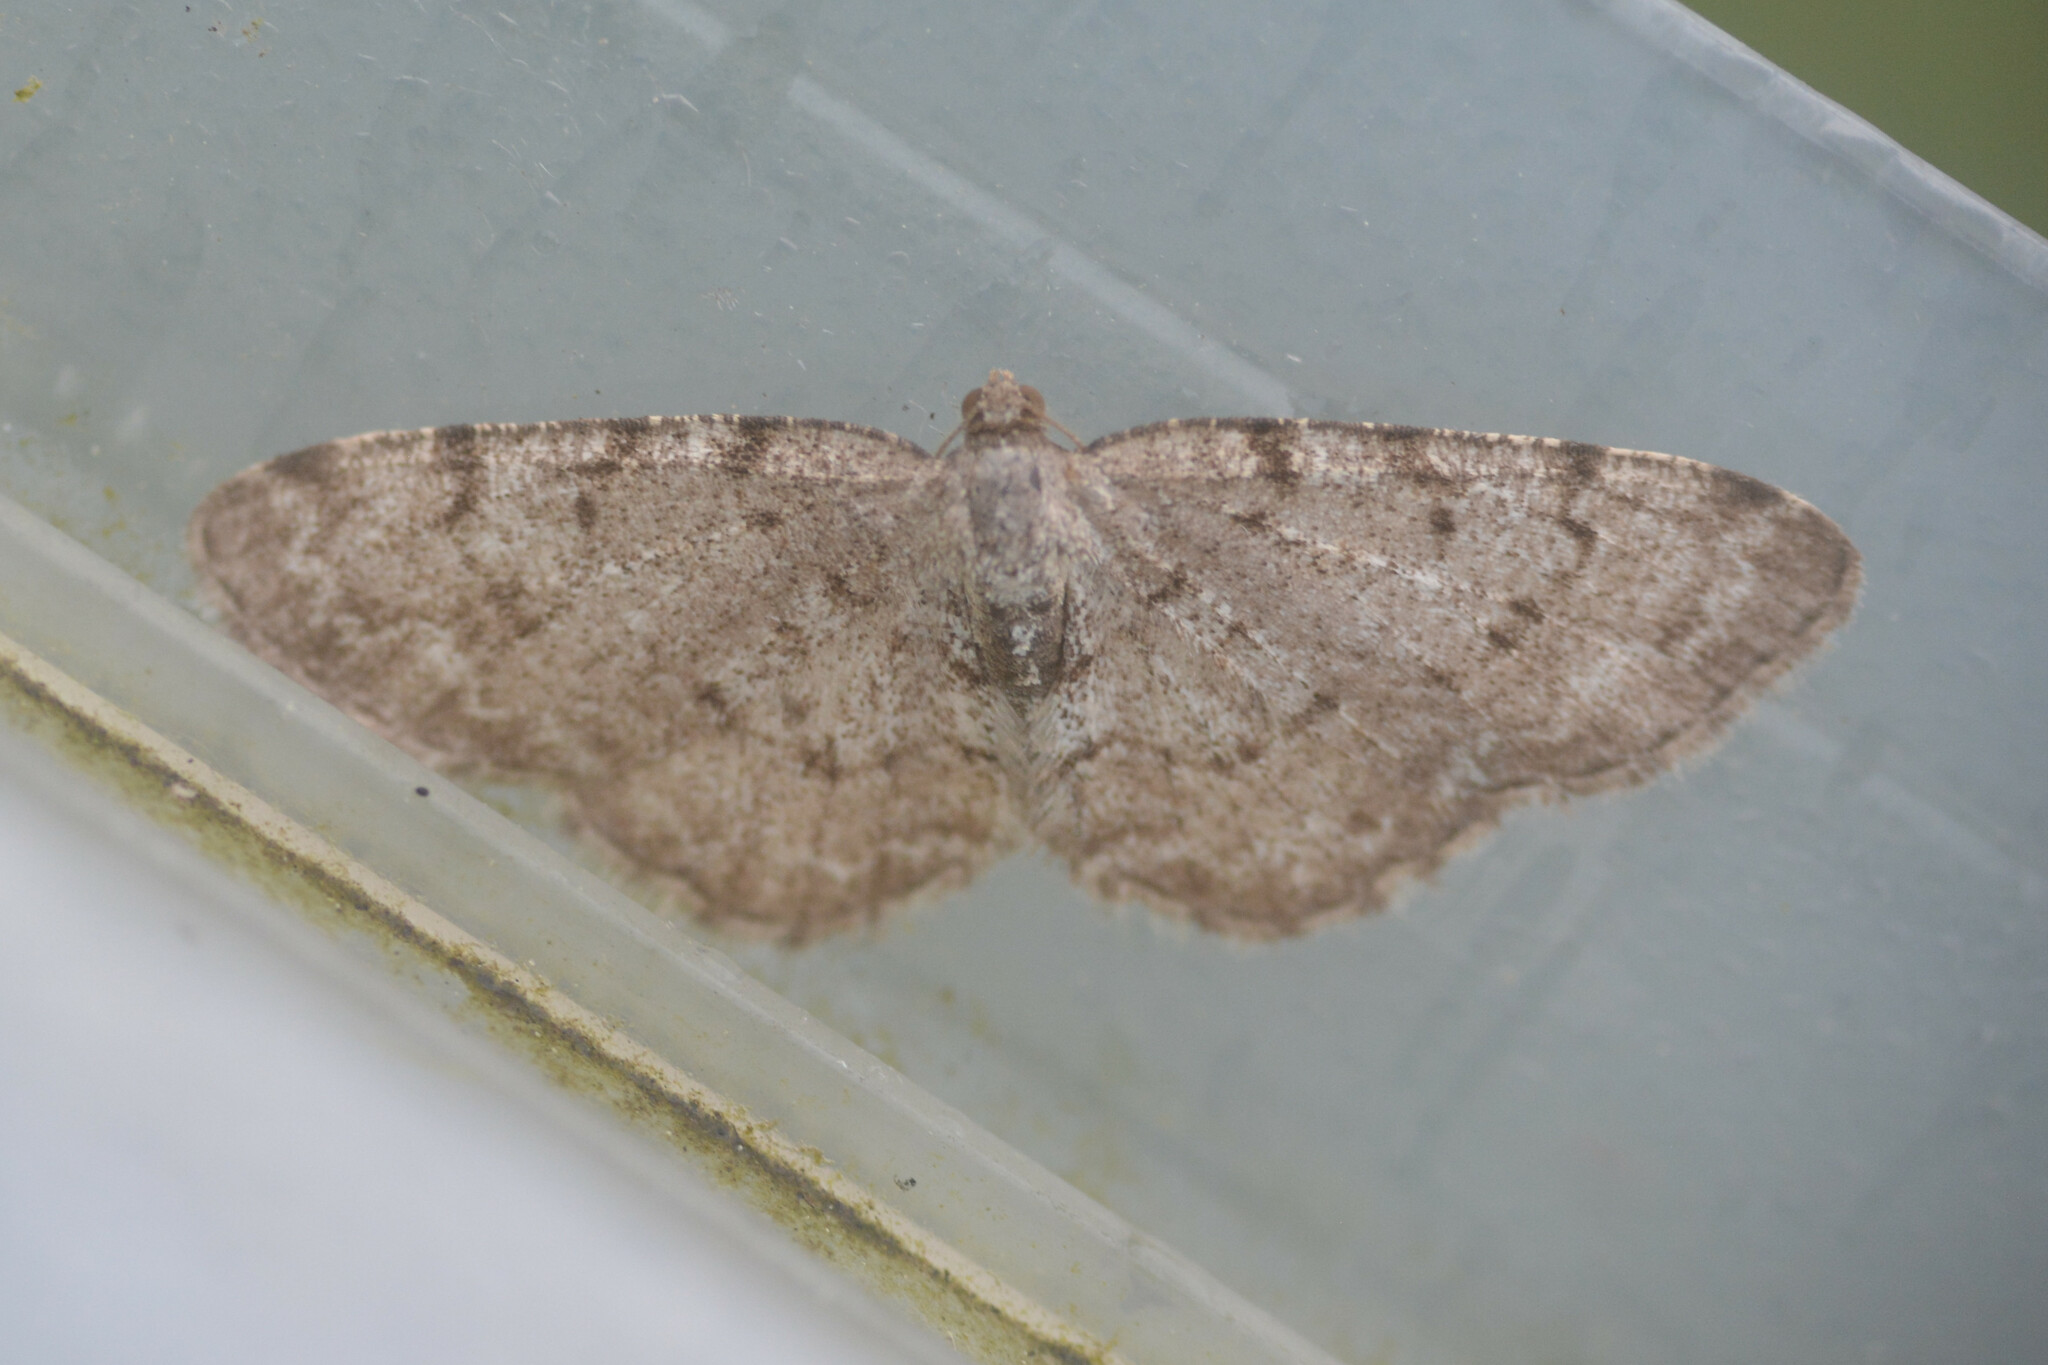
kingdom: Animalia
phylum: Arthropoda
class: Insecta
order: Lepidoptera
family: Geometridae
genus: Aethalura
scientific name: Aethalura punctulata
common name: Grey birch
